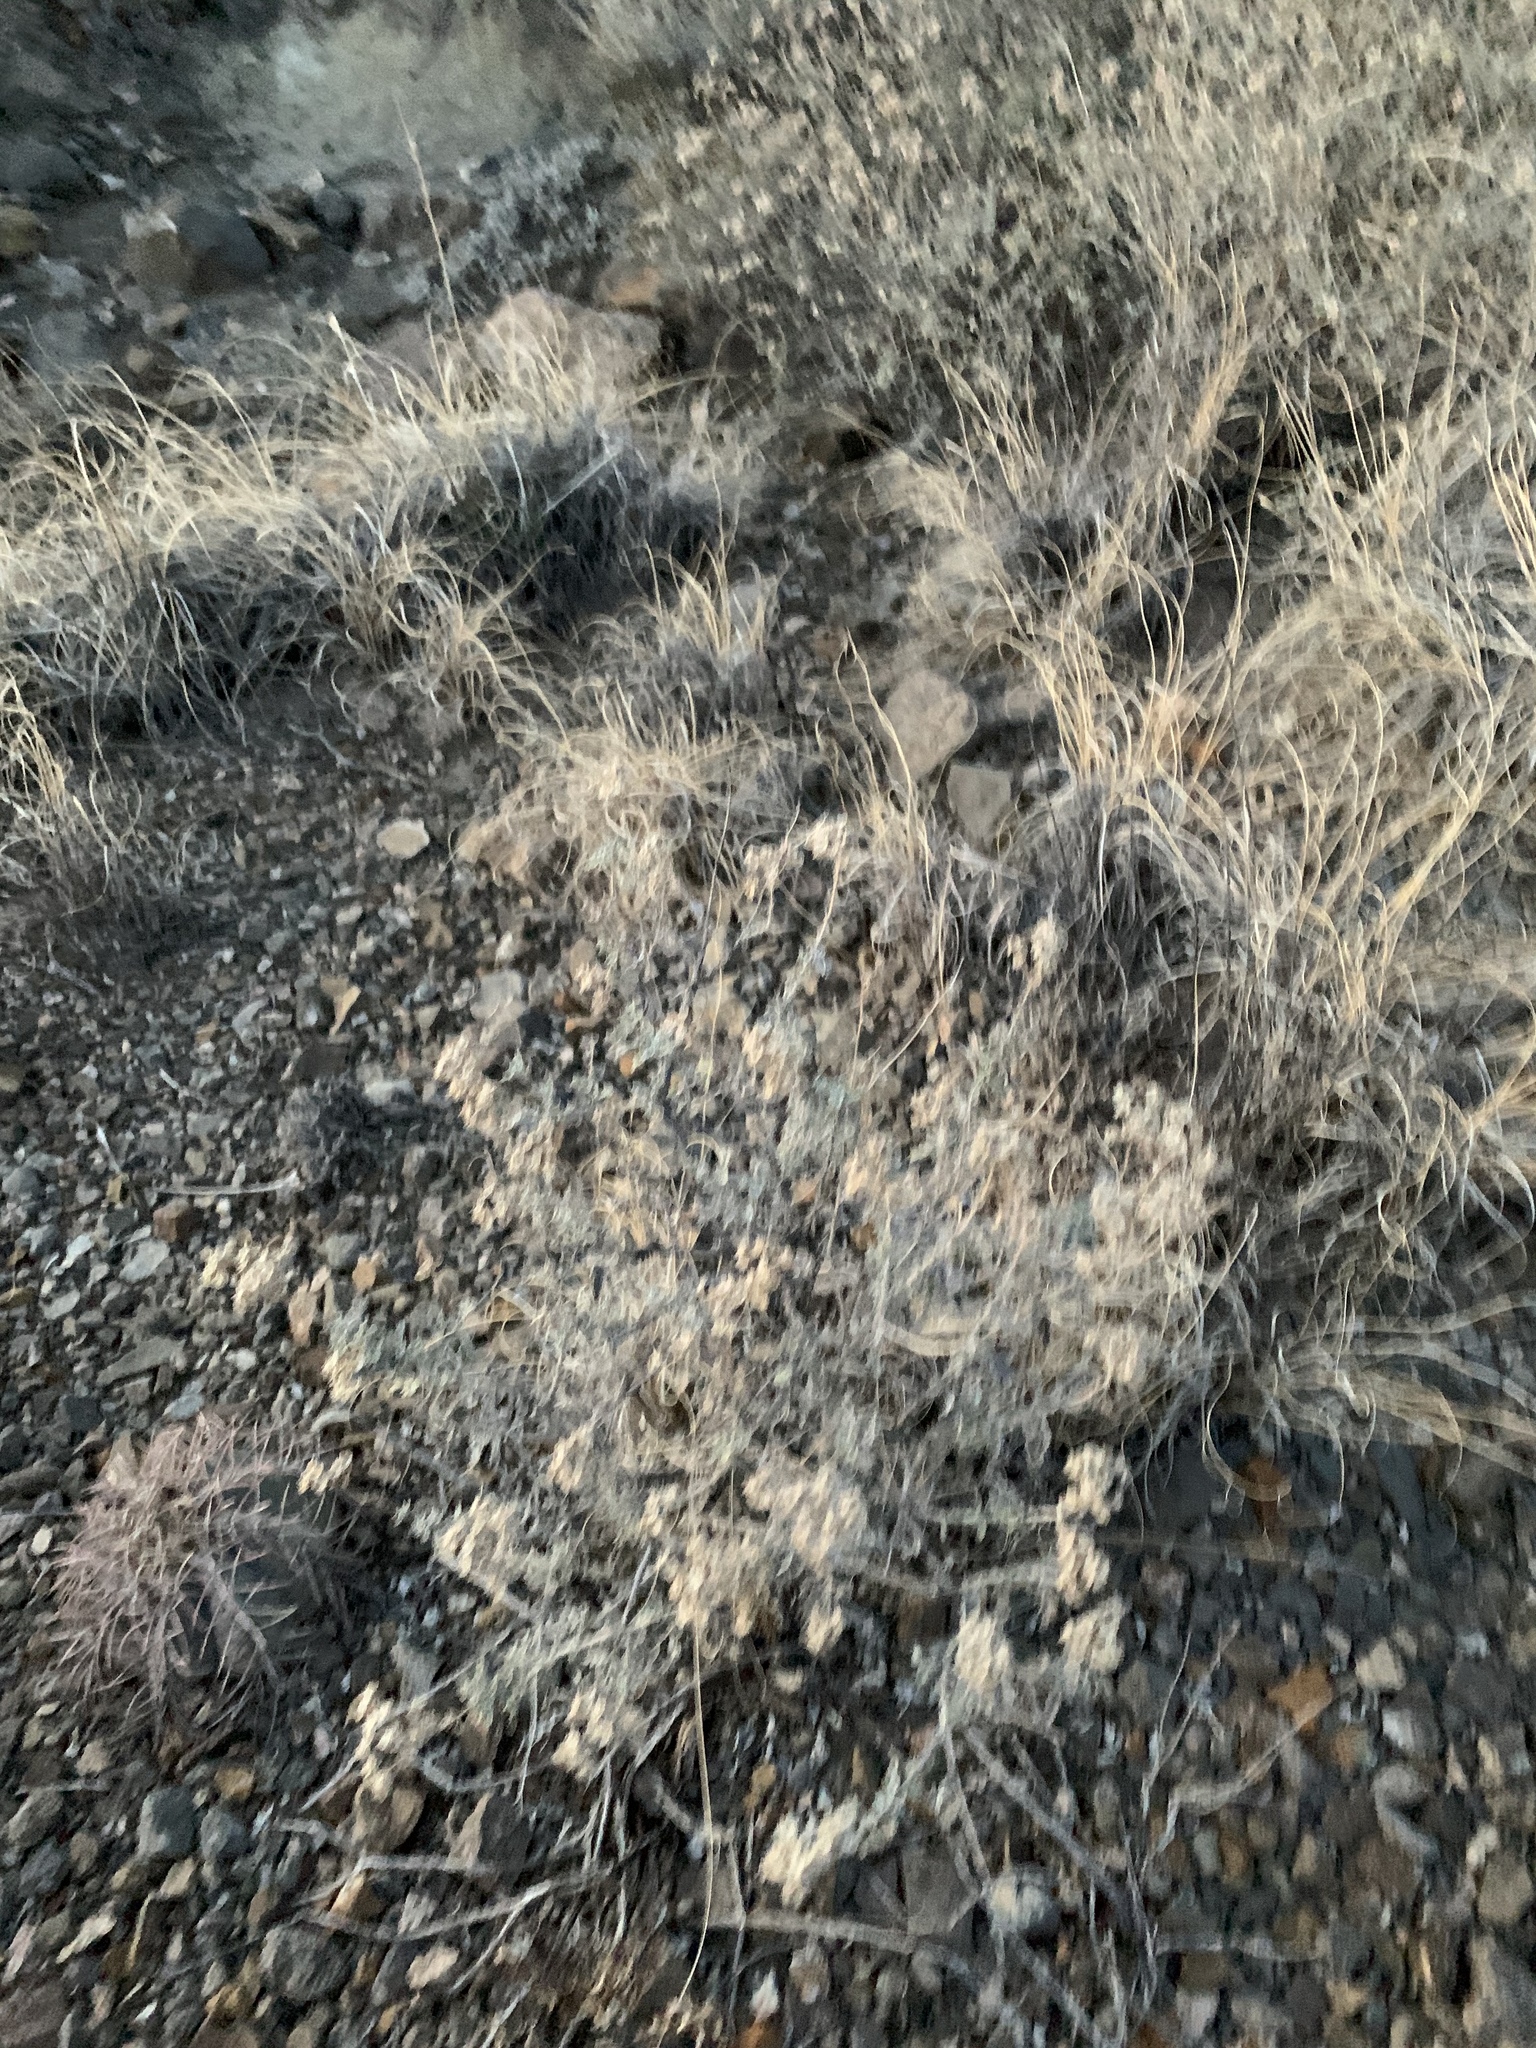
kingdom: Plantae
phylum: Tracheophyta
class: Magnoliopsida
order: Asterales
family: Asteraceae
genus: Parthenium
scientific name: Parthenium incanum
